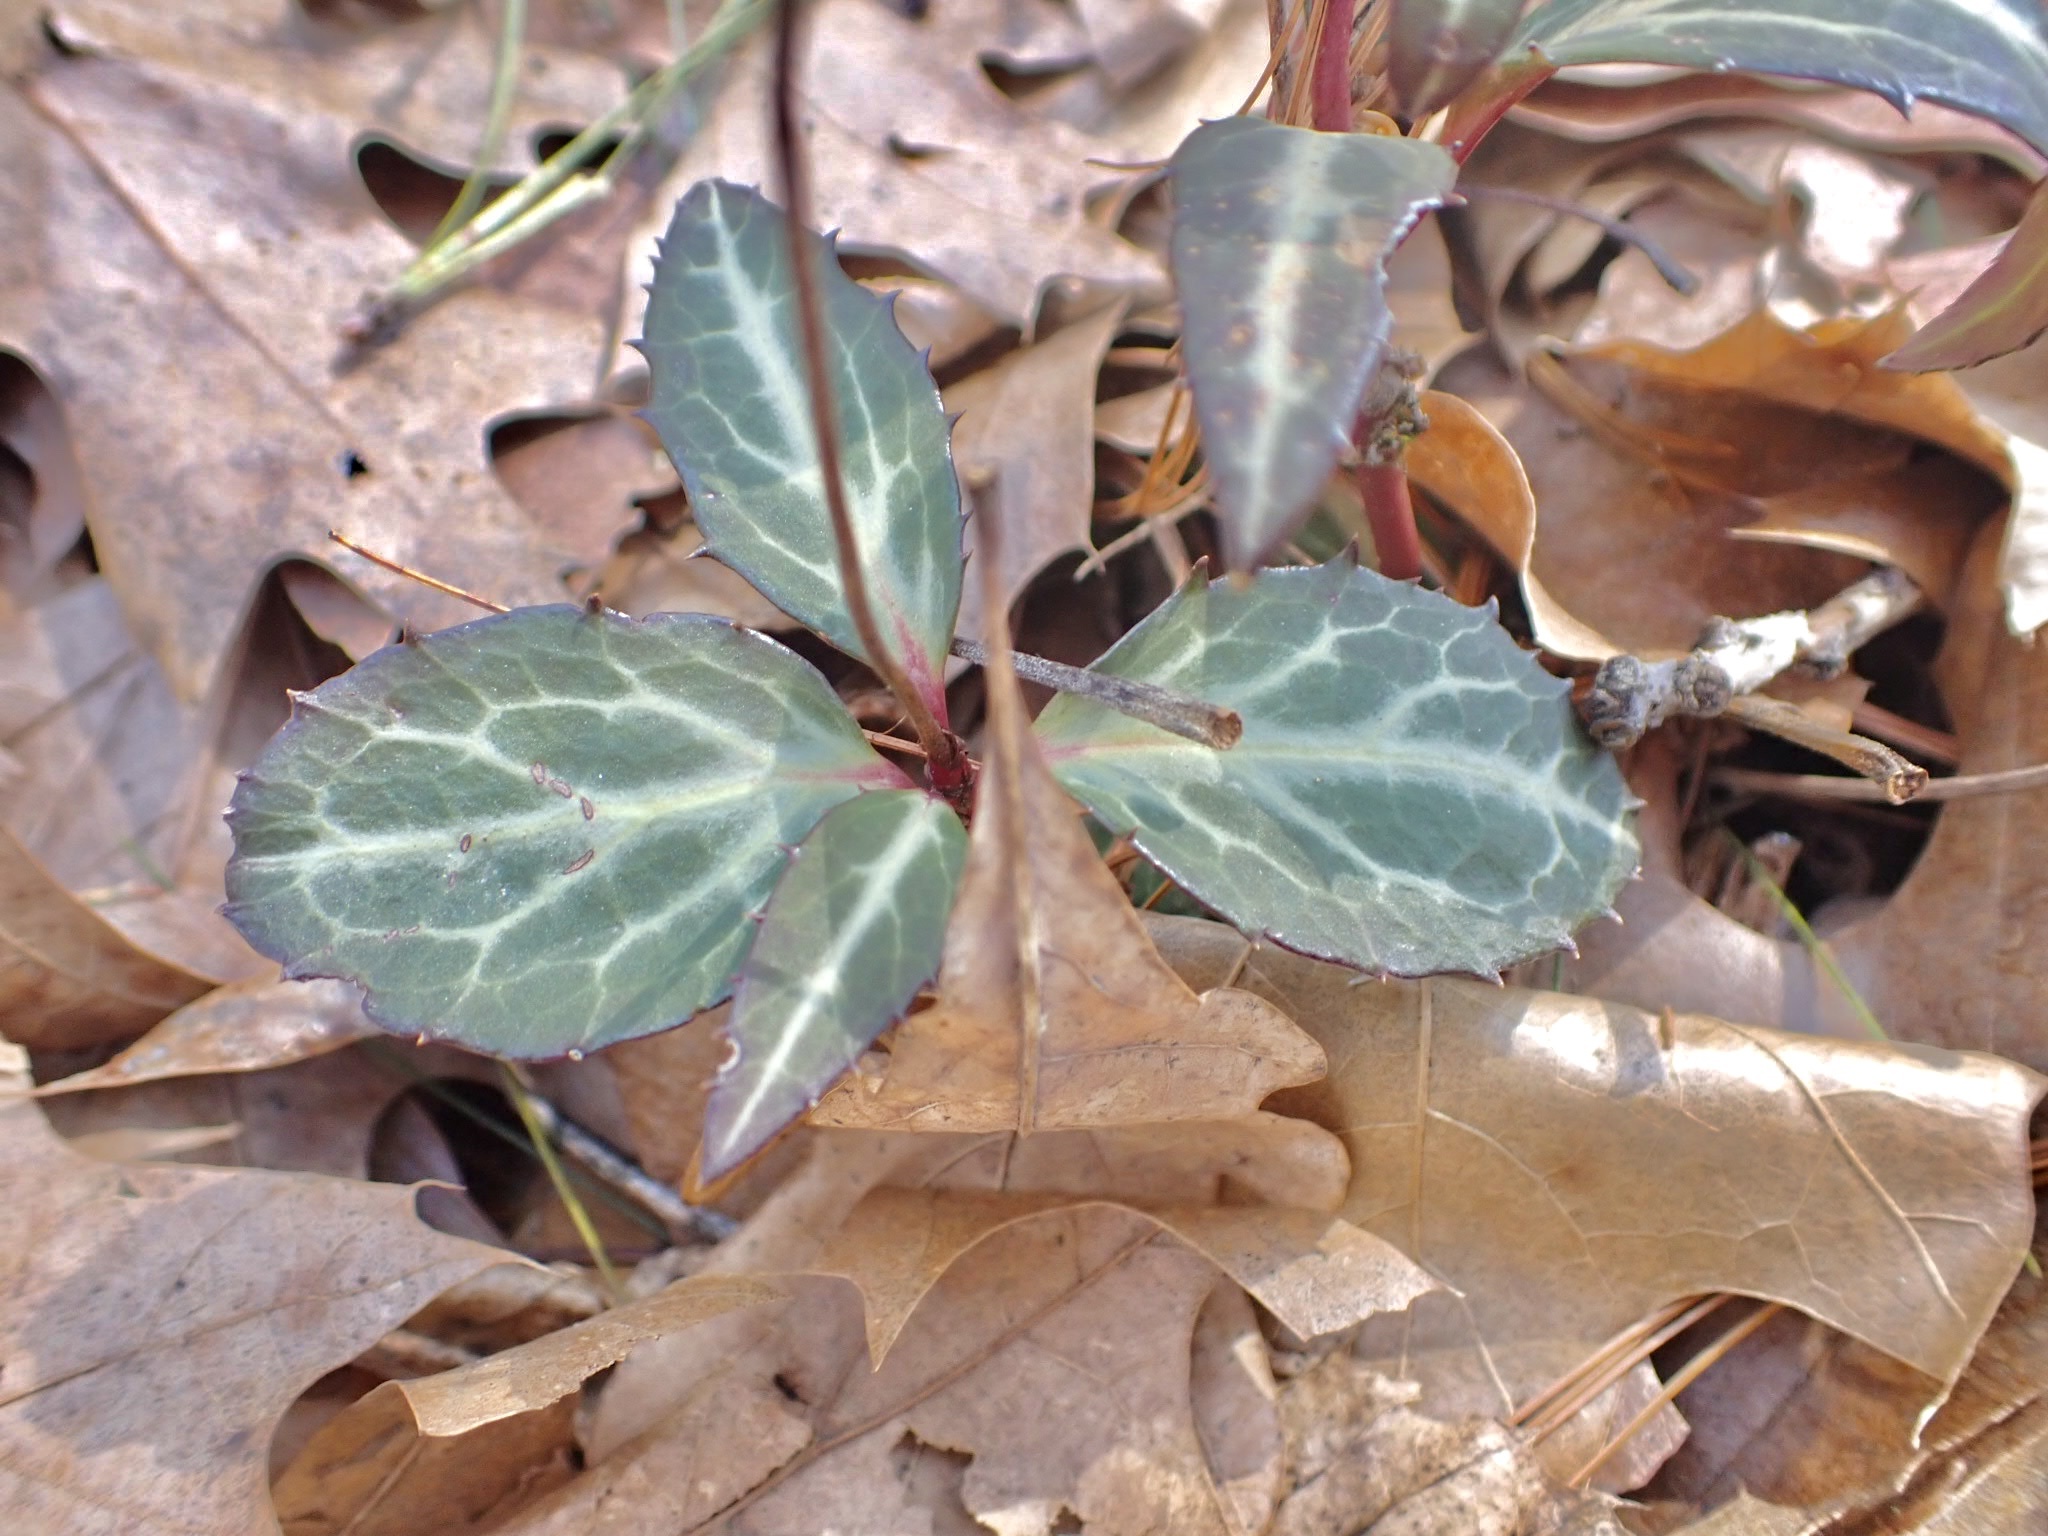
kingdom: Plantae
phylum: Tracheophyta
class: Magnoliopsida
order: Ericales
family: Ericaceae
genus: Chimaphila
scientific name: Chimaphila maculata
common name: Spotted pipsissewa
